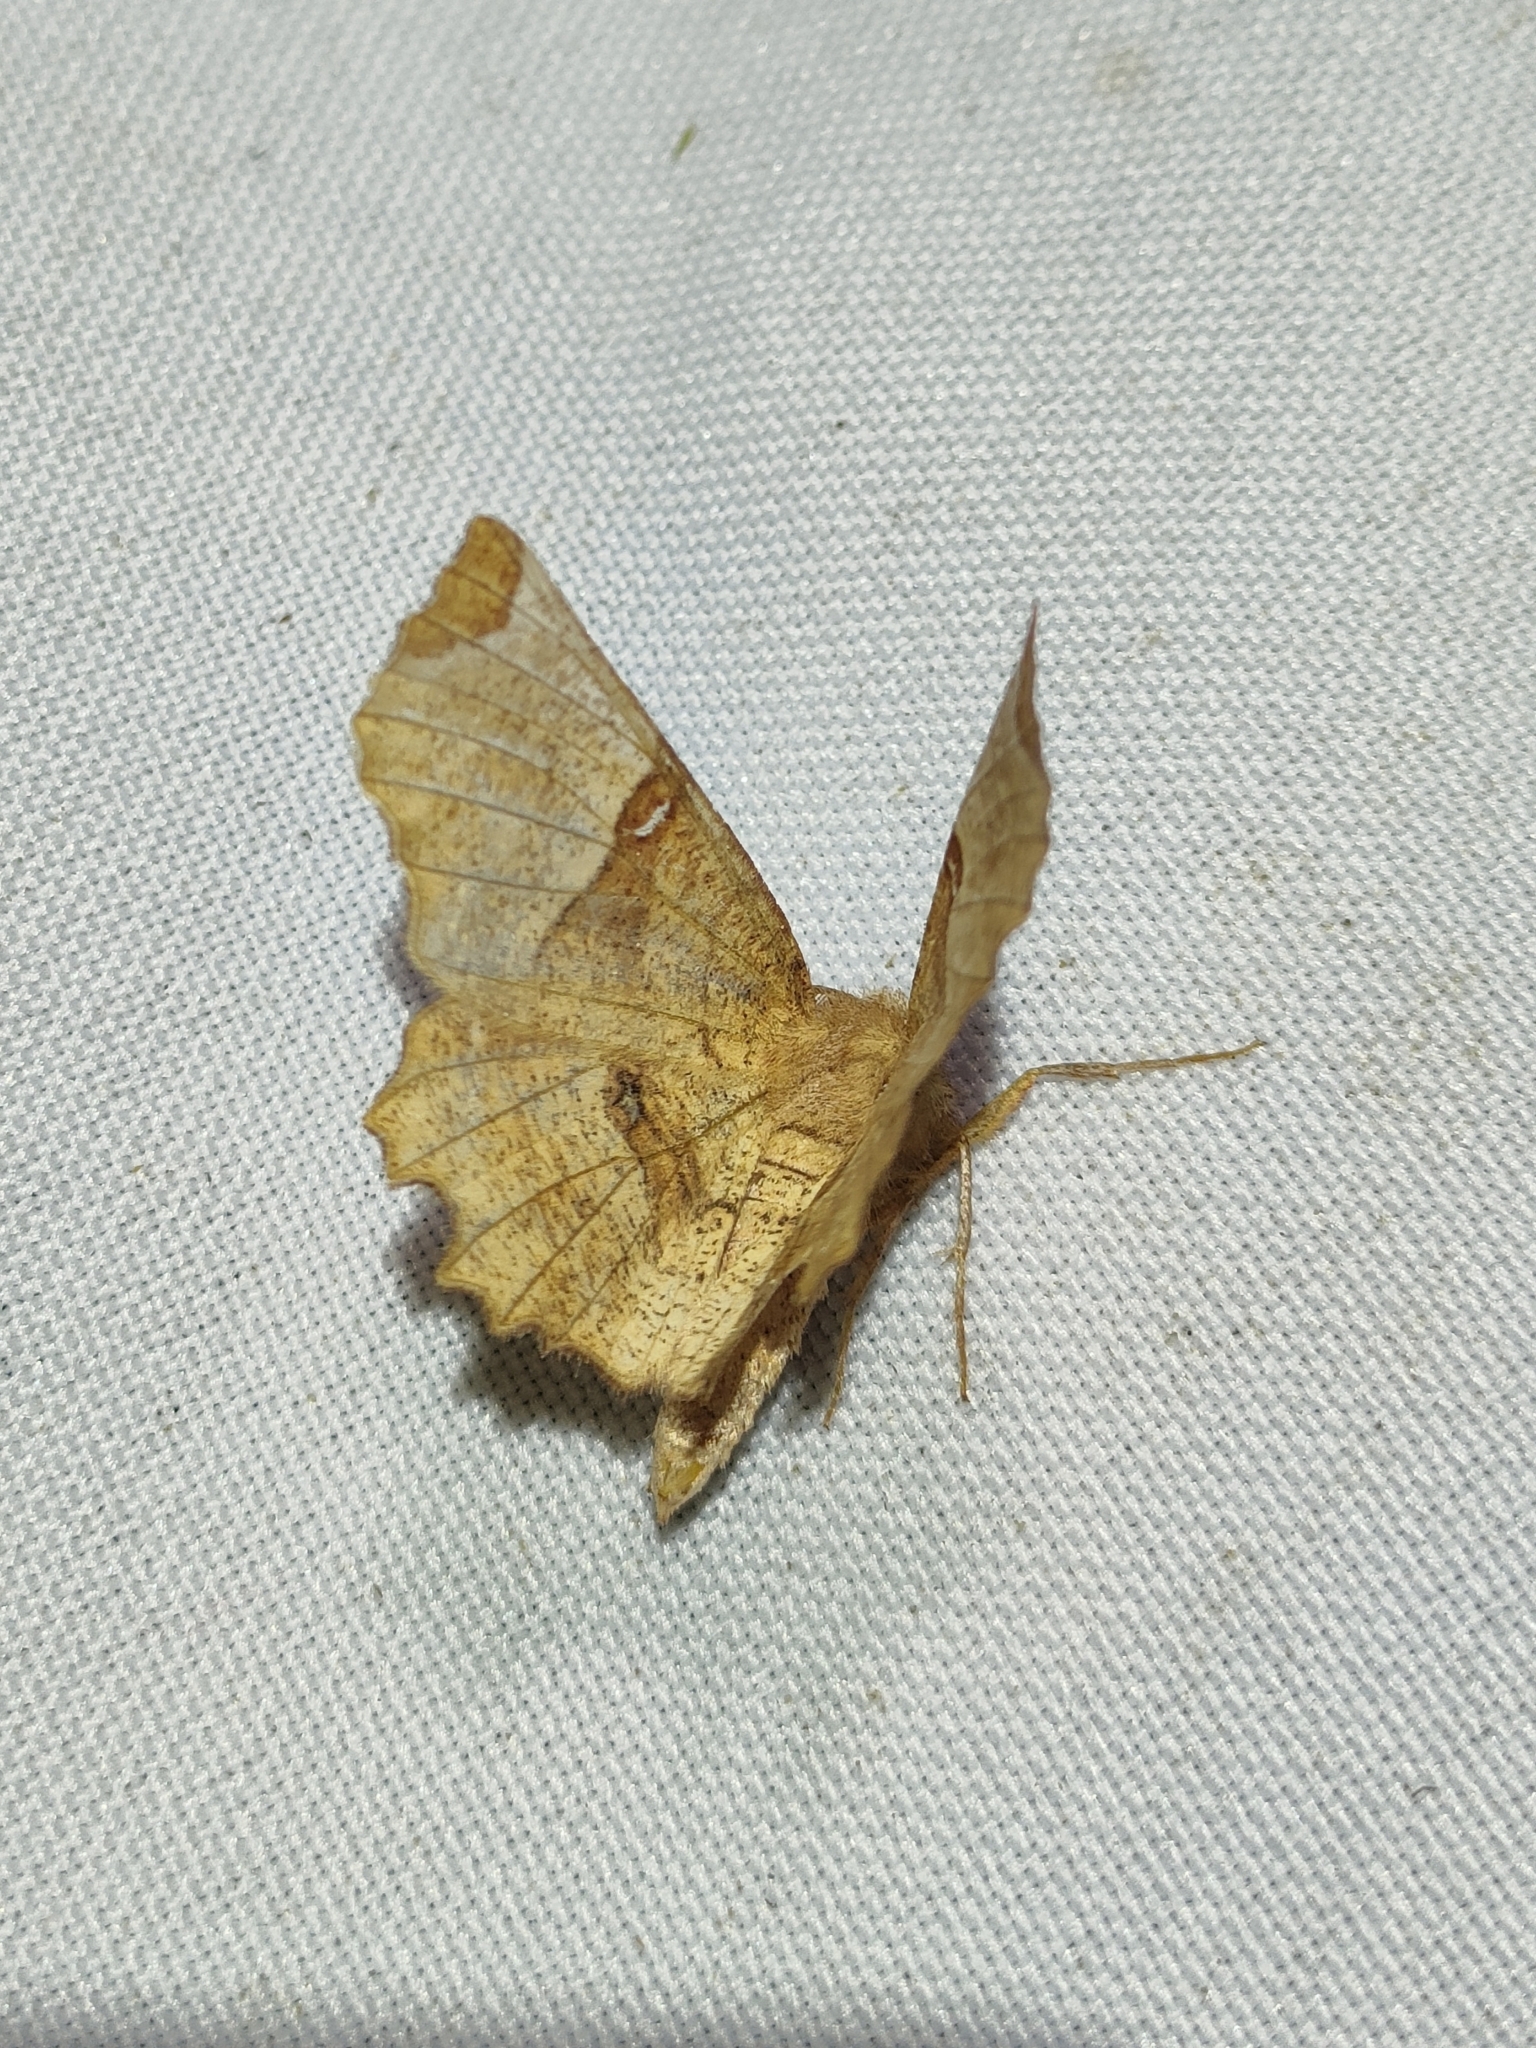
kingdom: Animalia
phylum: Arthropoda
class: Insecta
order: Lepidoptera
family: Geometridae
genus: Selenia
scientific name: Selenia lunularia
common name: Lunar thorn
